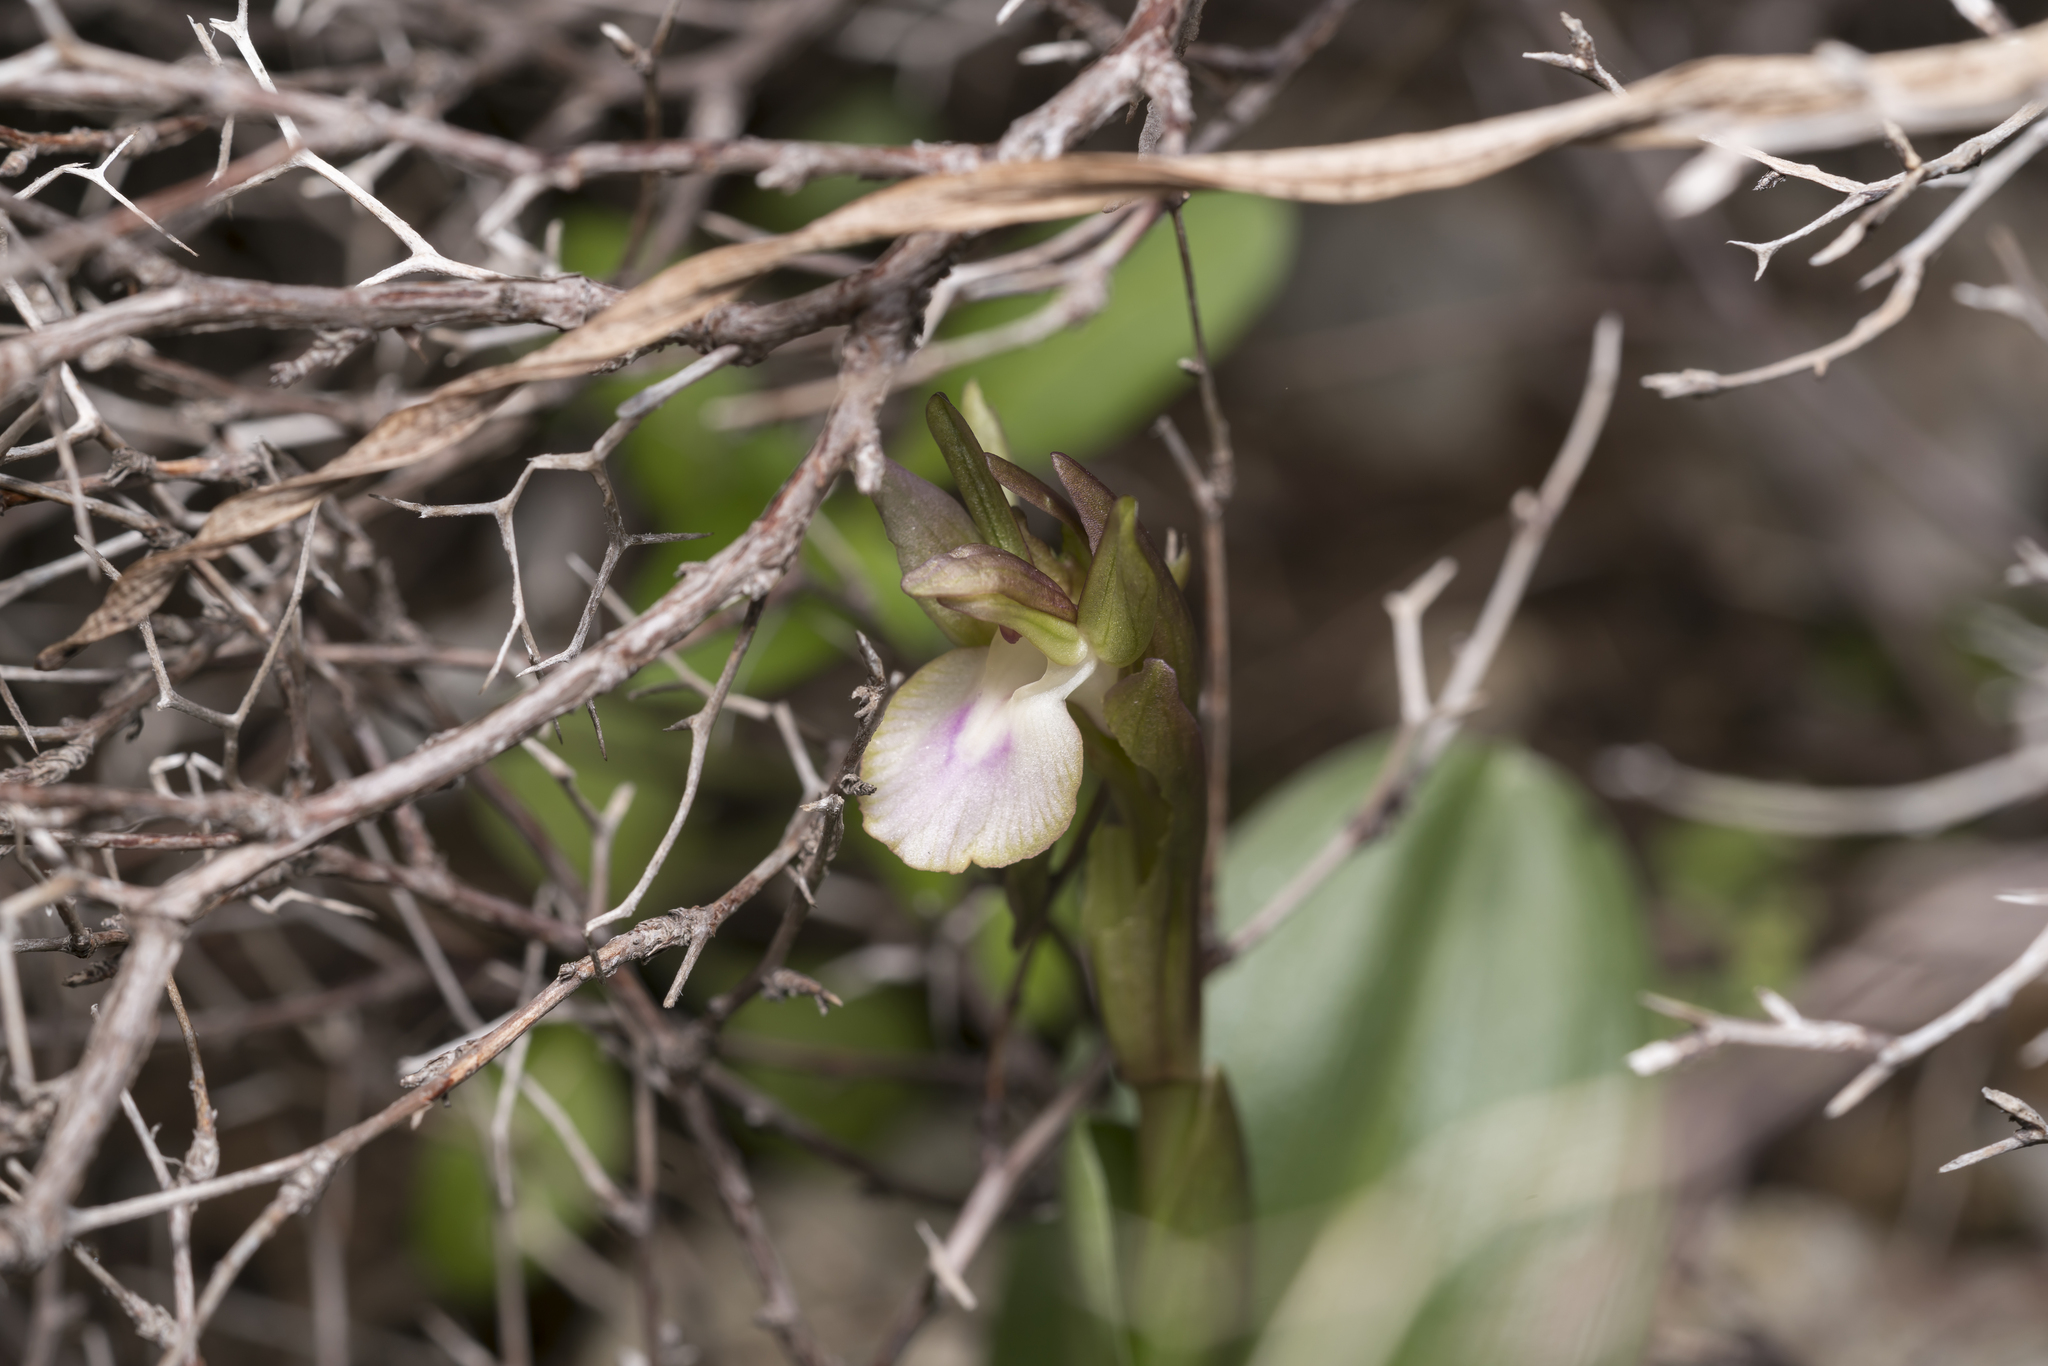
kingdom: Plantae
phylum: Tracheophyta
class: Liliopsida
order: Asparagales
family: Orchidaceae
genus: Anacamptis
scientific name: Anacamptis collina
